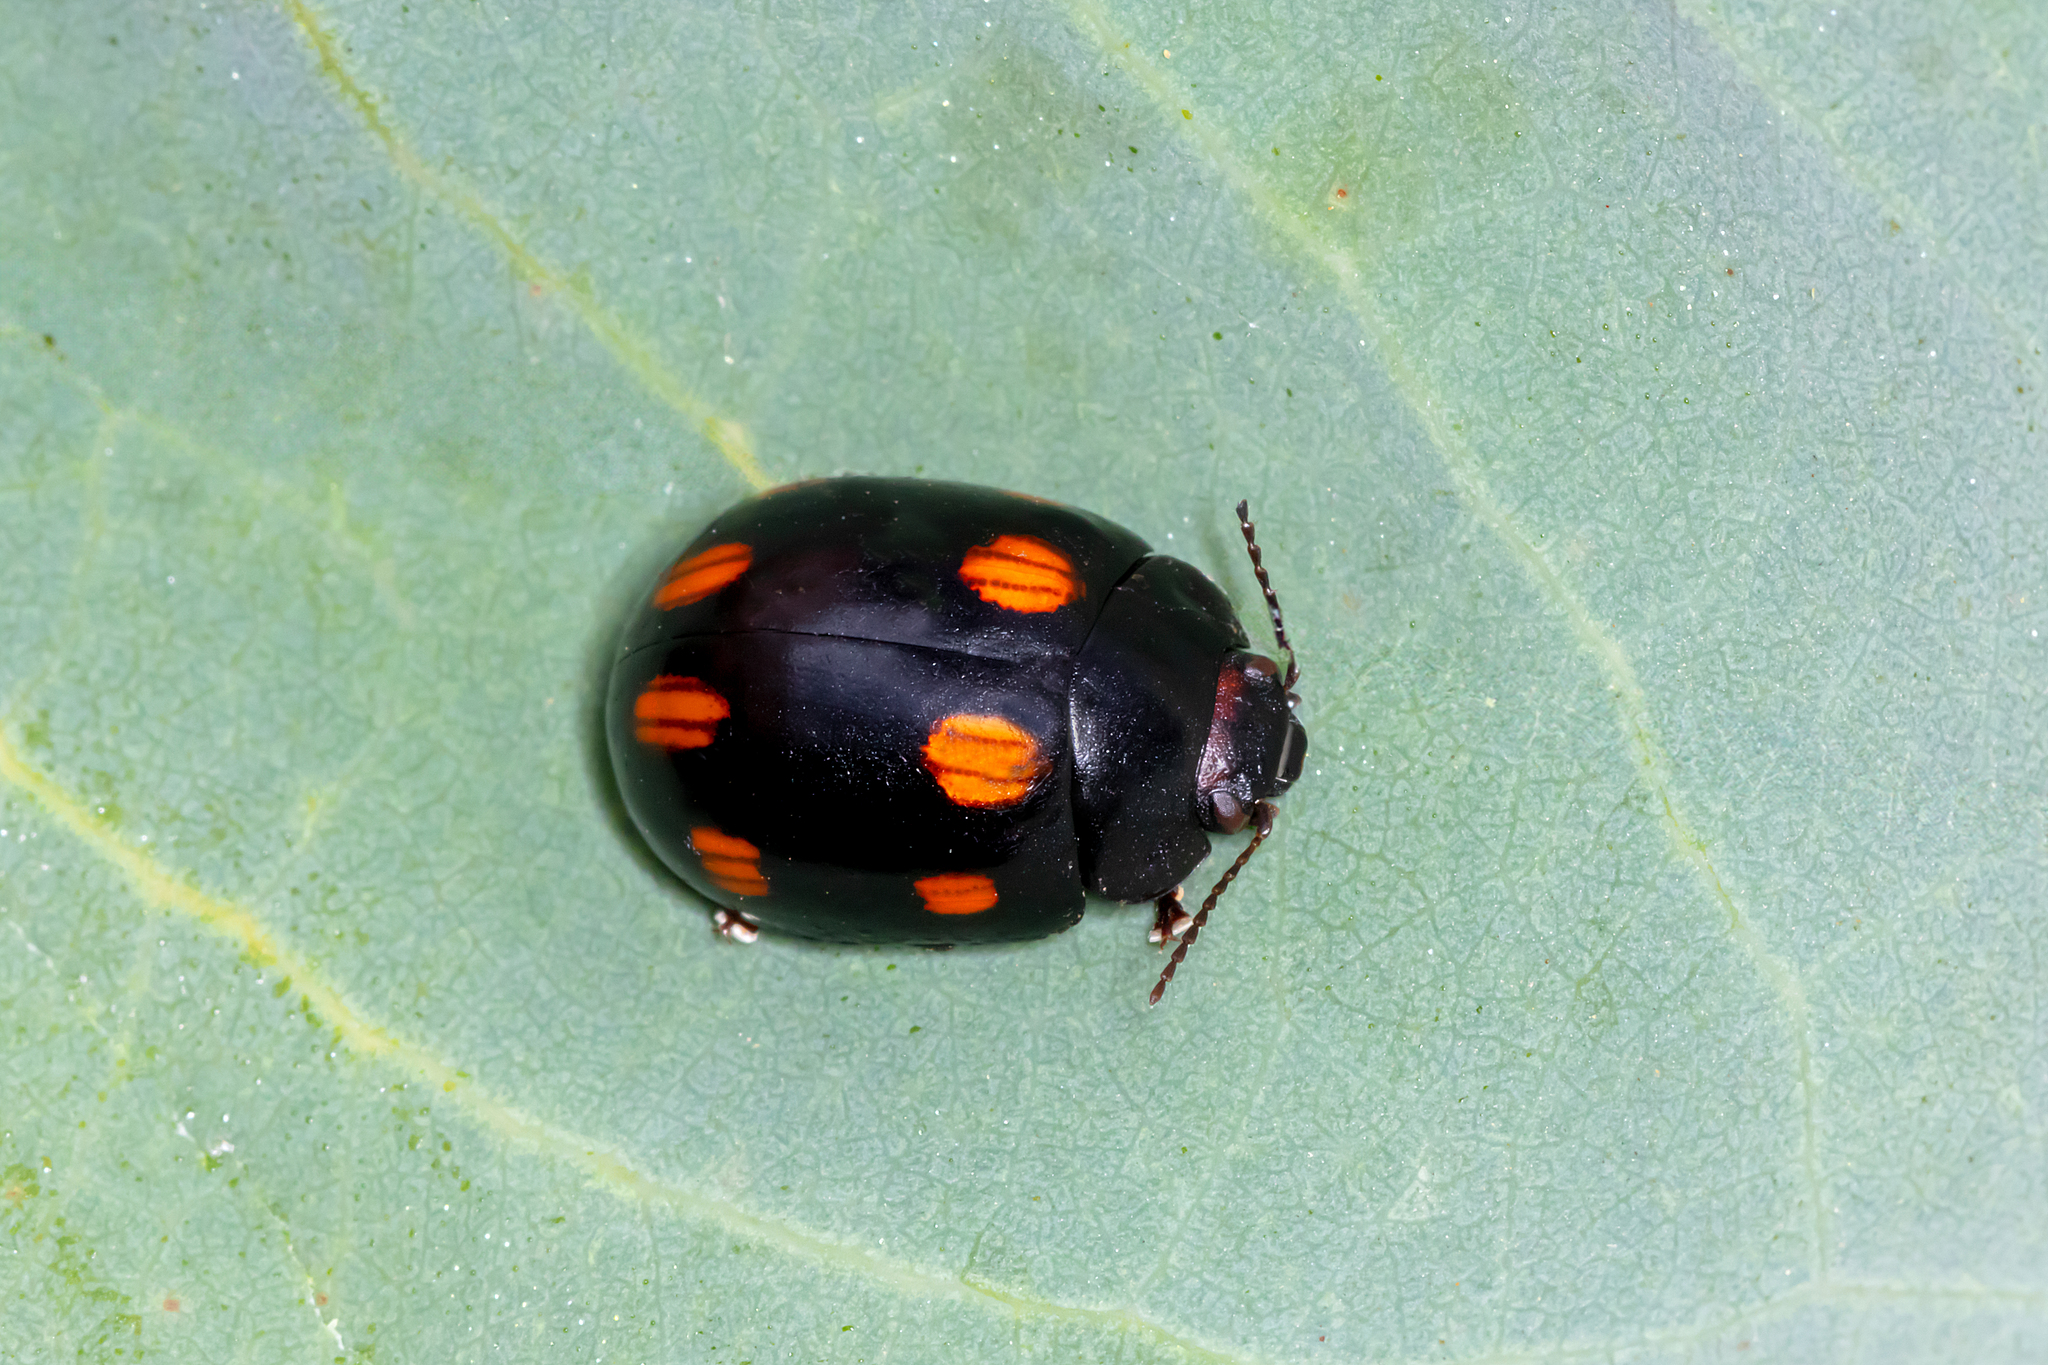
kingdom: Animalia
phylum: Arthropoda
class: Insecta
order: Coleoptera
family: Chrysomelidae
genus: Paropsisterna
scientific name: Paropsisterna
